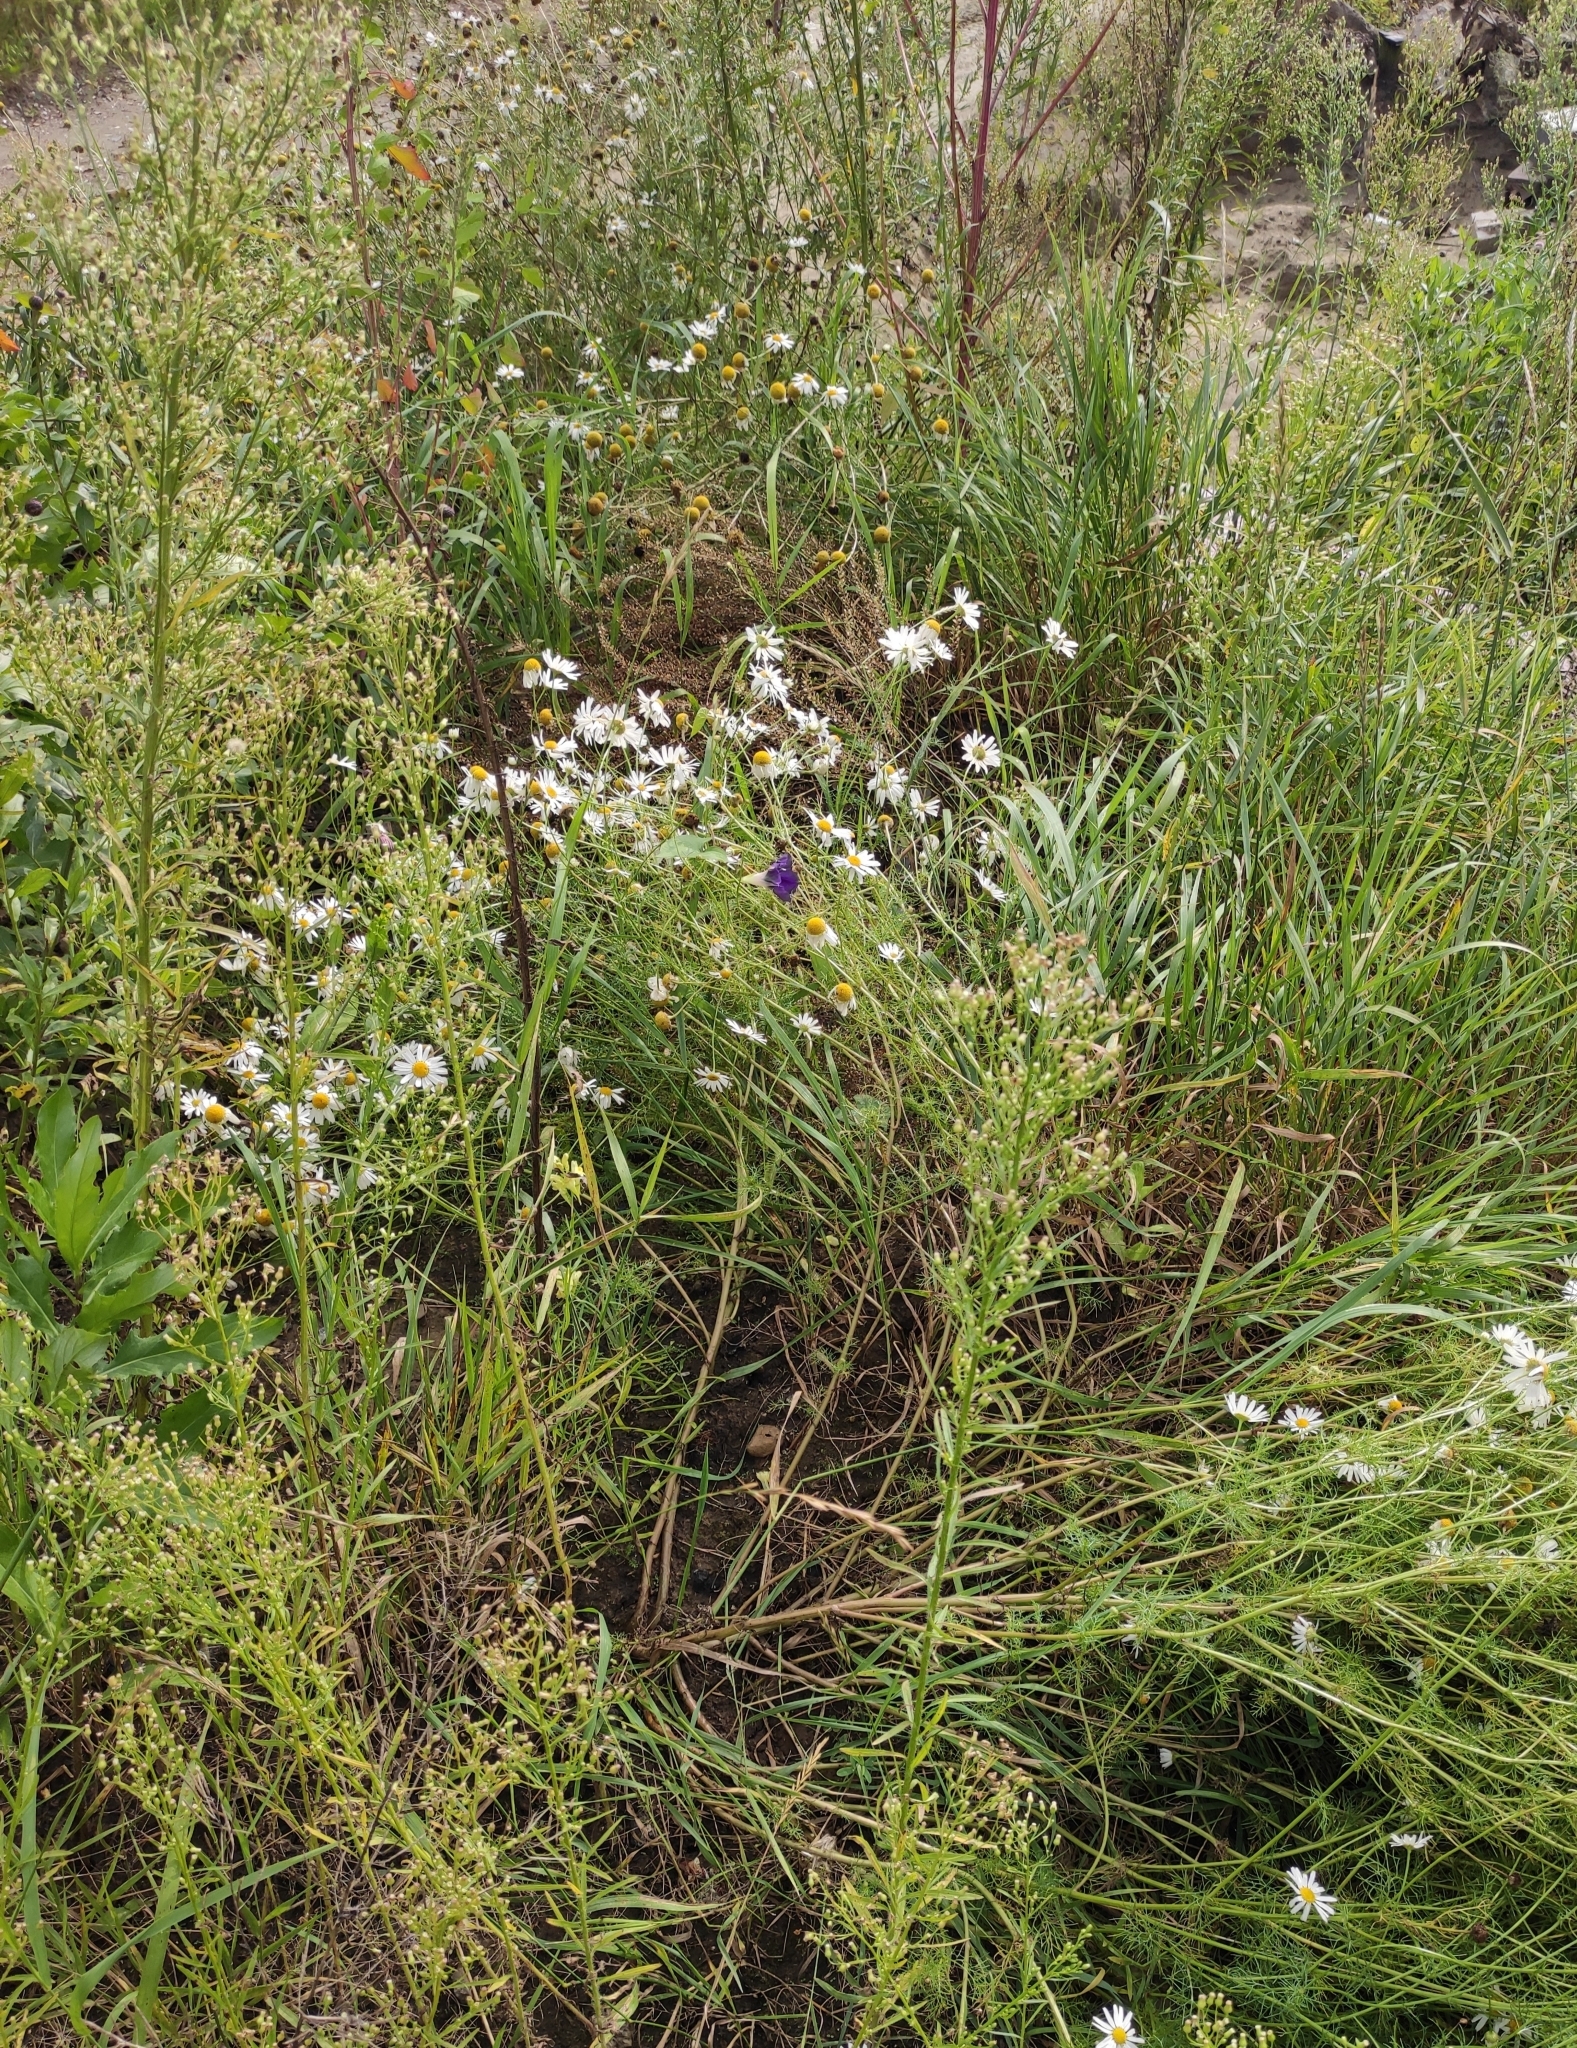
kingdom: Plantae
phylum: Tracheophyta
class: Magnoliopsida
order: Solanales
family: Convolvulaceae
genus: Ipomoea
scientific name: Ipomoea purpurea
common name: Common morning-glory
